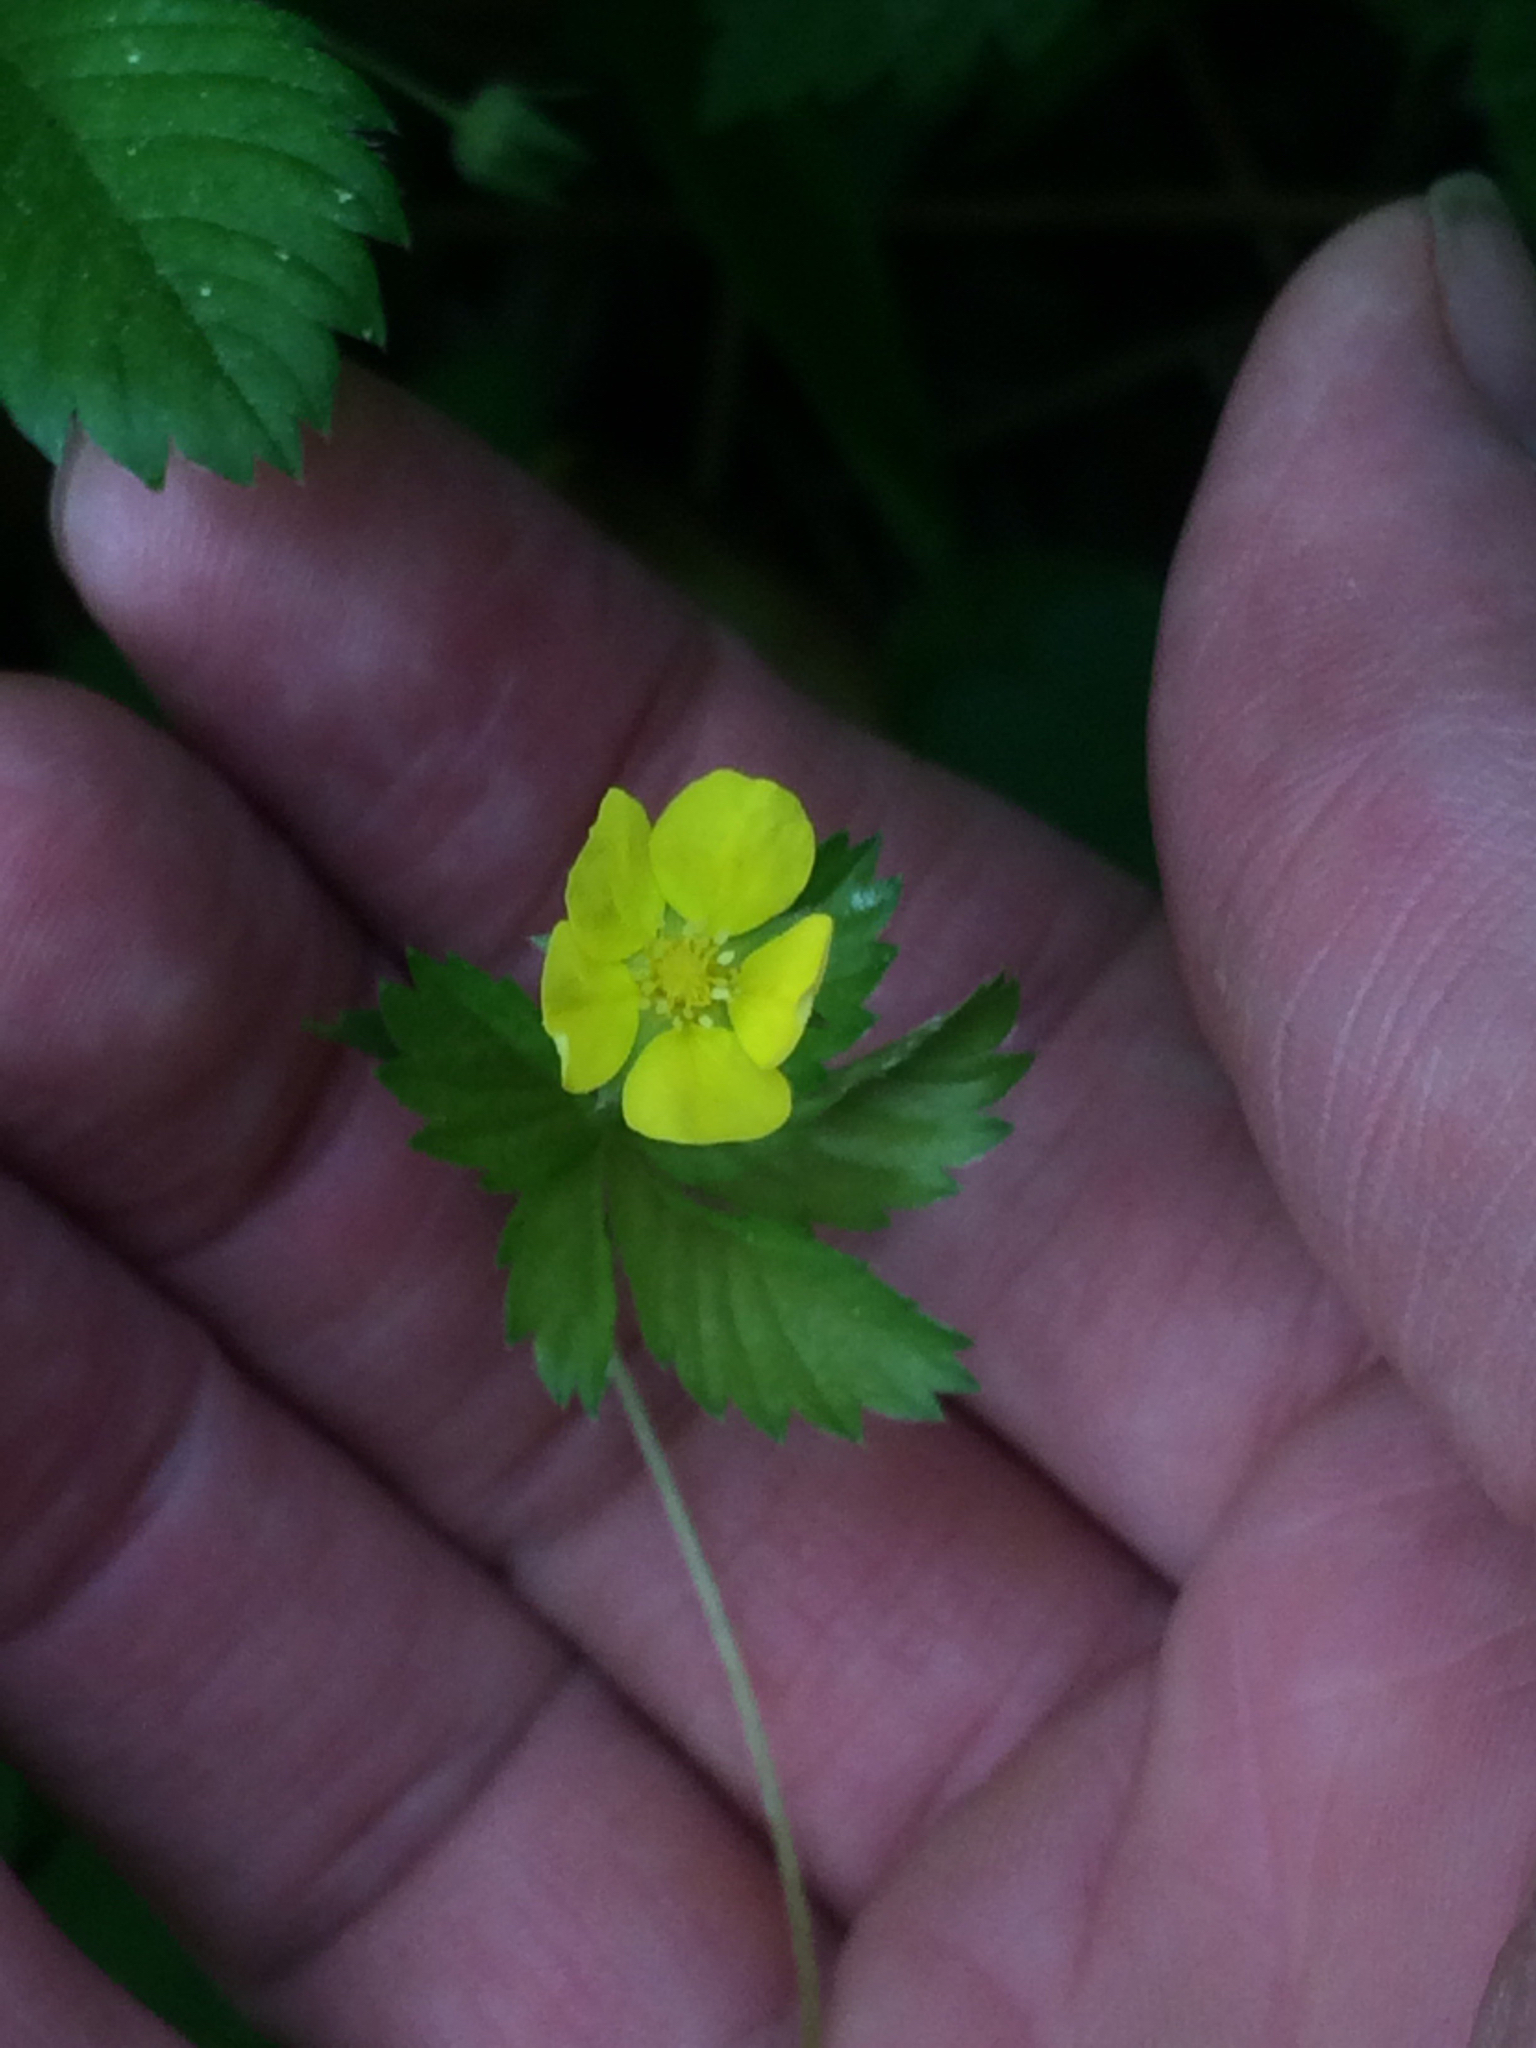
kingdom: Plantae
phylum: Tracheophyta
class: Magnoliopsida
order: Rosales
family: Rosaceae
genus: Potentilla
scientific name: Potentilla
